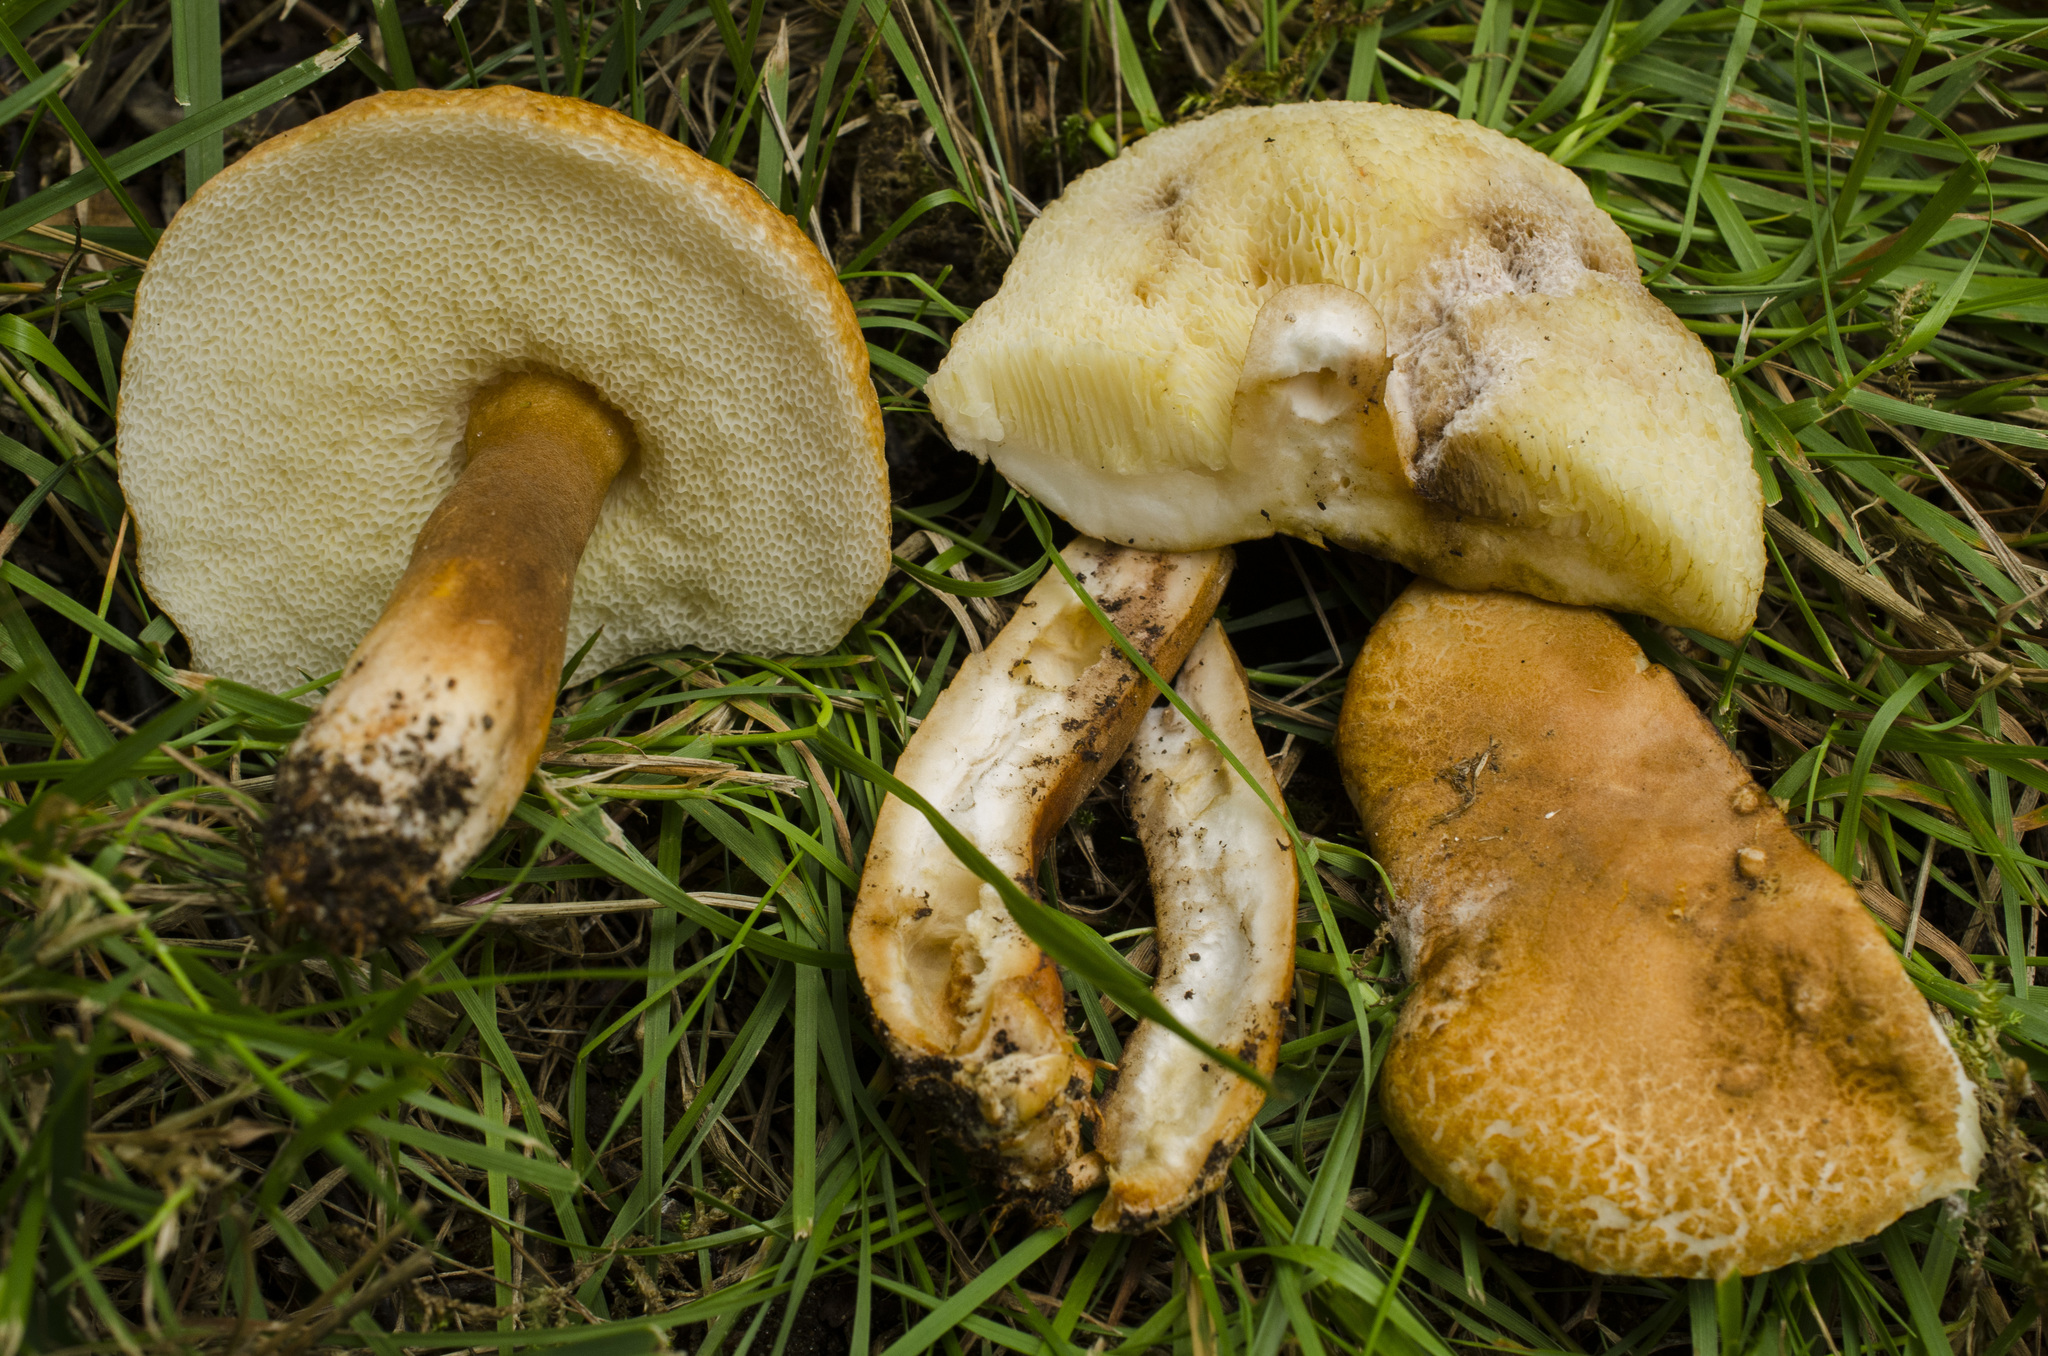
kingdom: Fungi
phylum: Basidiomycota
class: Agaricomycetes
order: Boletales
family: Gyroporaceae
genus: Gyroporus
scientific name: Gyroporus castaneus
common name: Chestnut bolete
